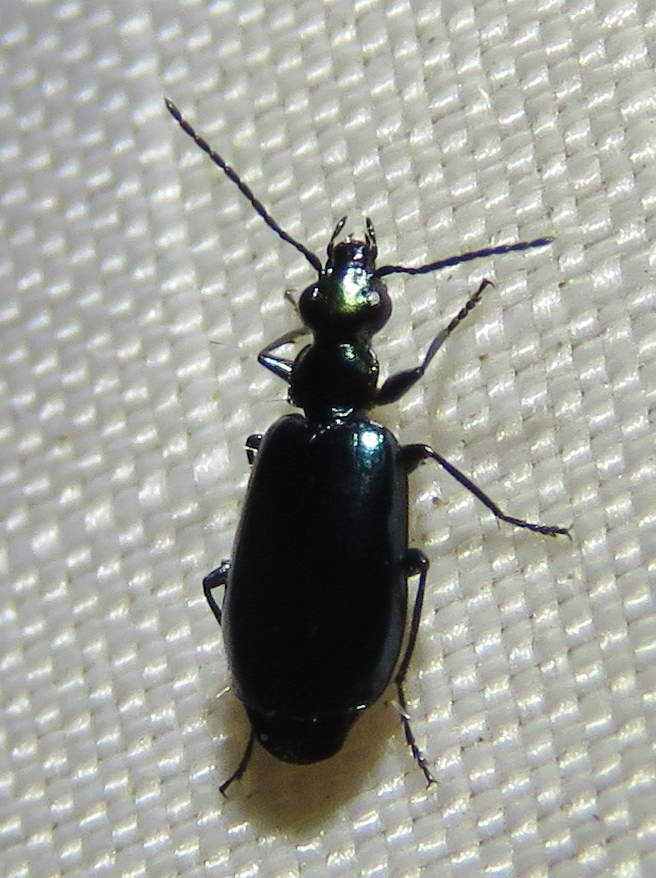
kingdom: Animalia
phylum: Arthropoda
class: Insecta
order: Coleoptera
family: Carabidae
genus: Lebia
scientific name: Lebia viridis
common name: Flower lebia beetle
